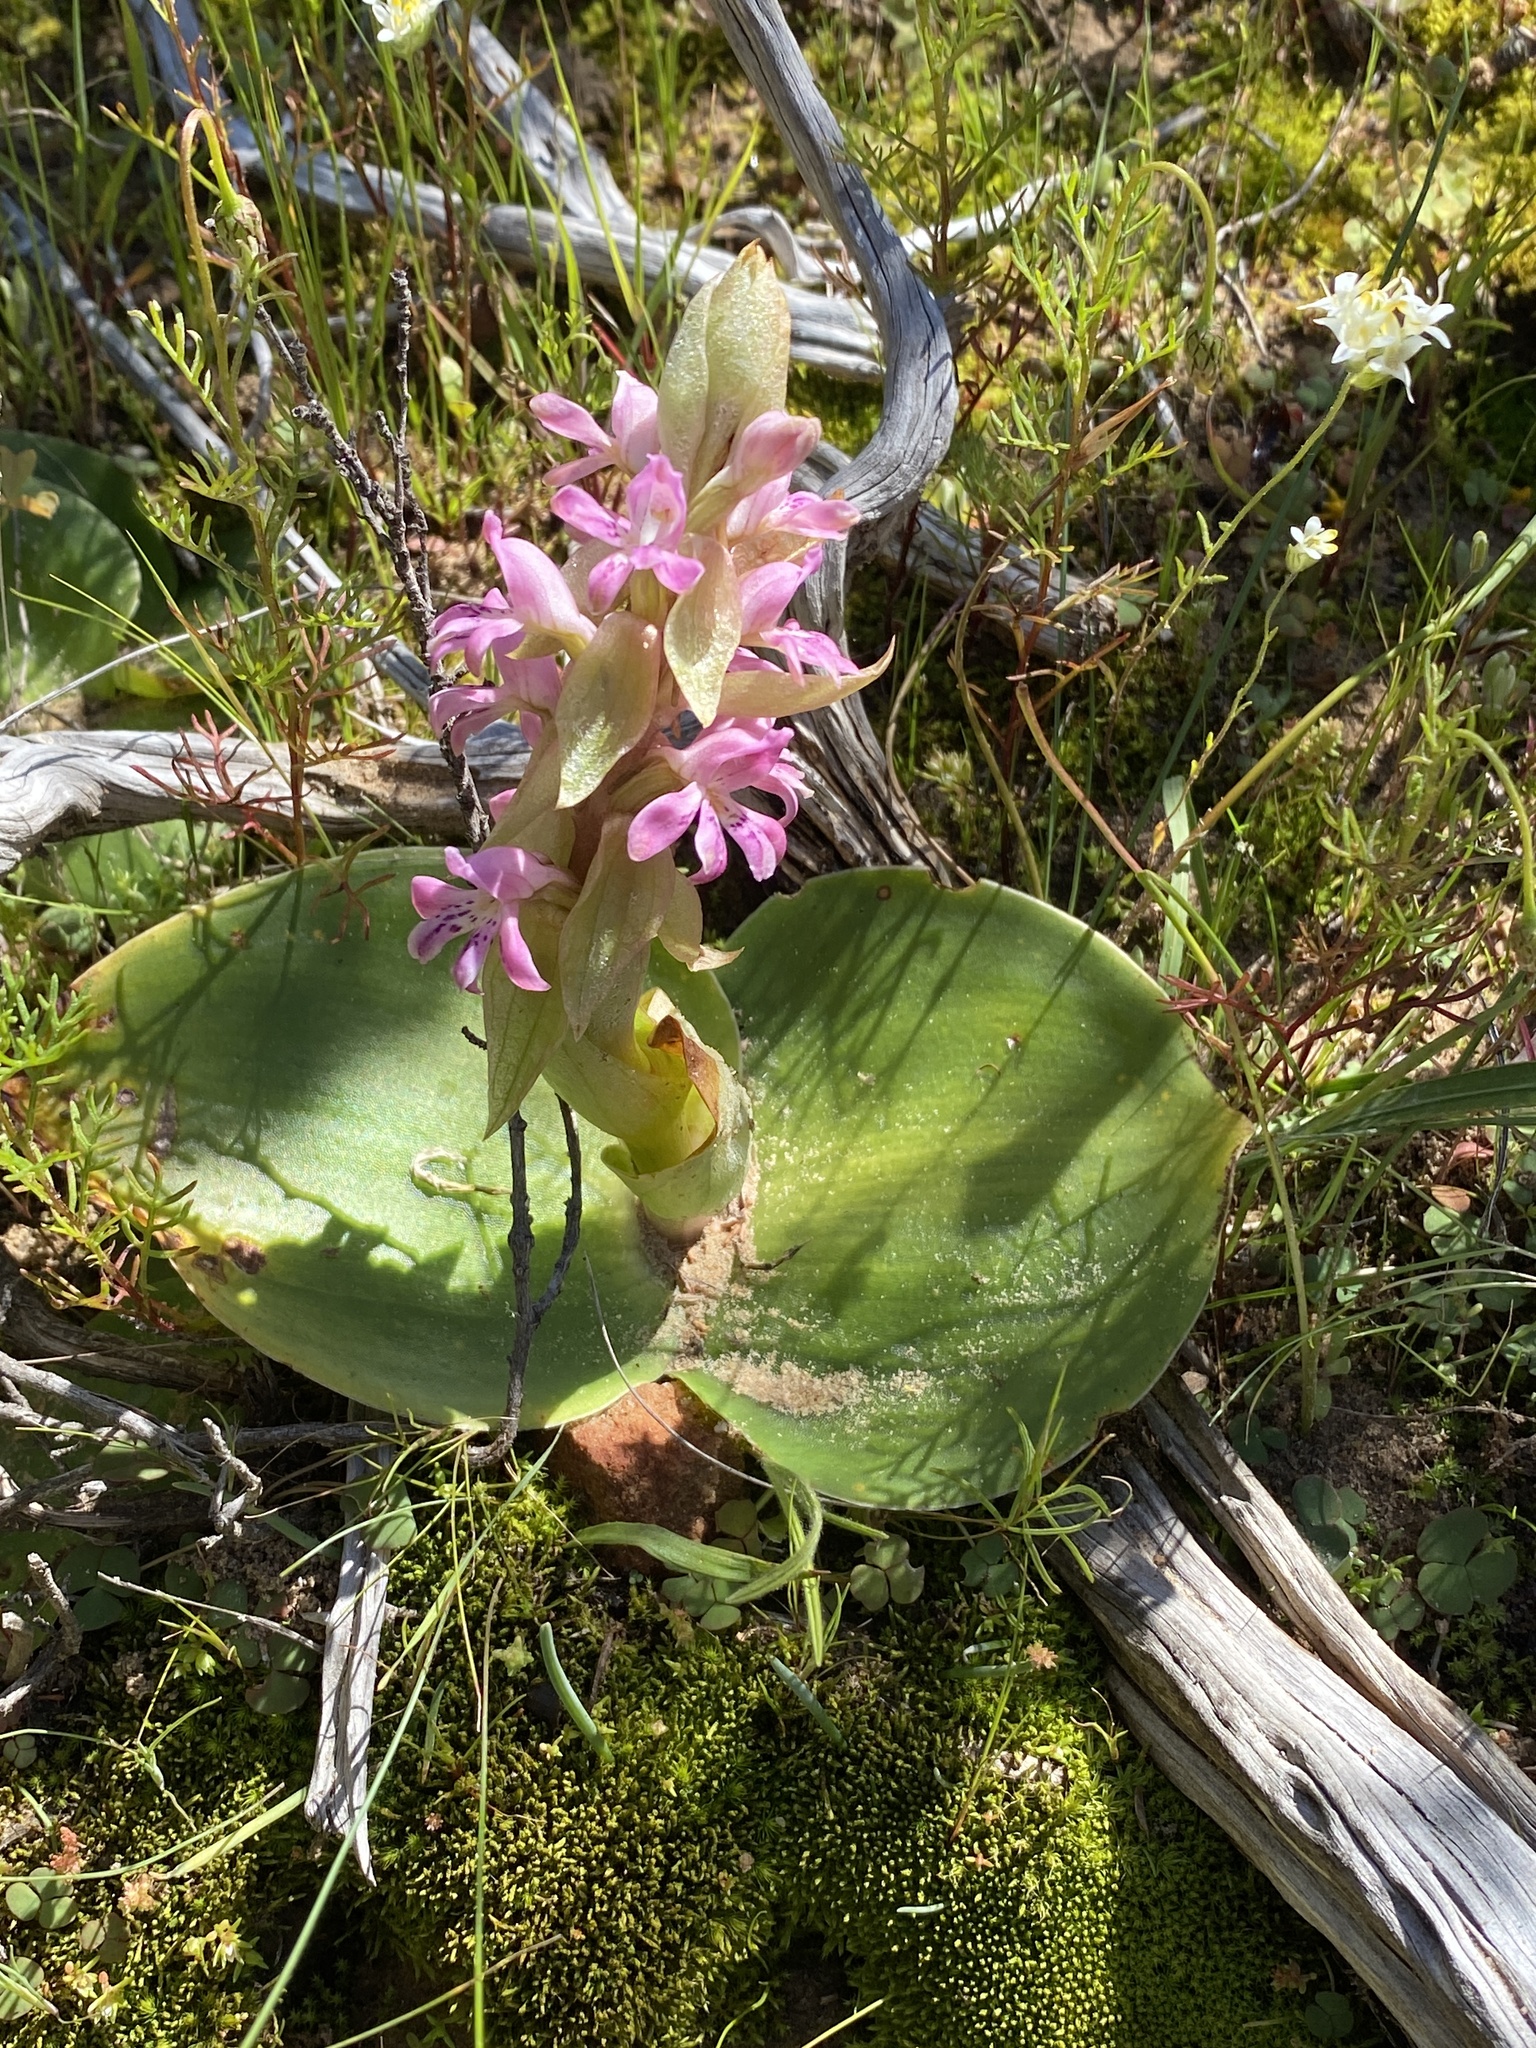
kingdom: Plantae
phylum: Tracheophyta
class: Liliopsida
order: Asparagales
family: Orchidaceae
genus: Satyrium
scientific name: Satyrium erectum
